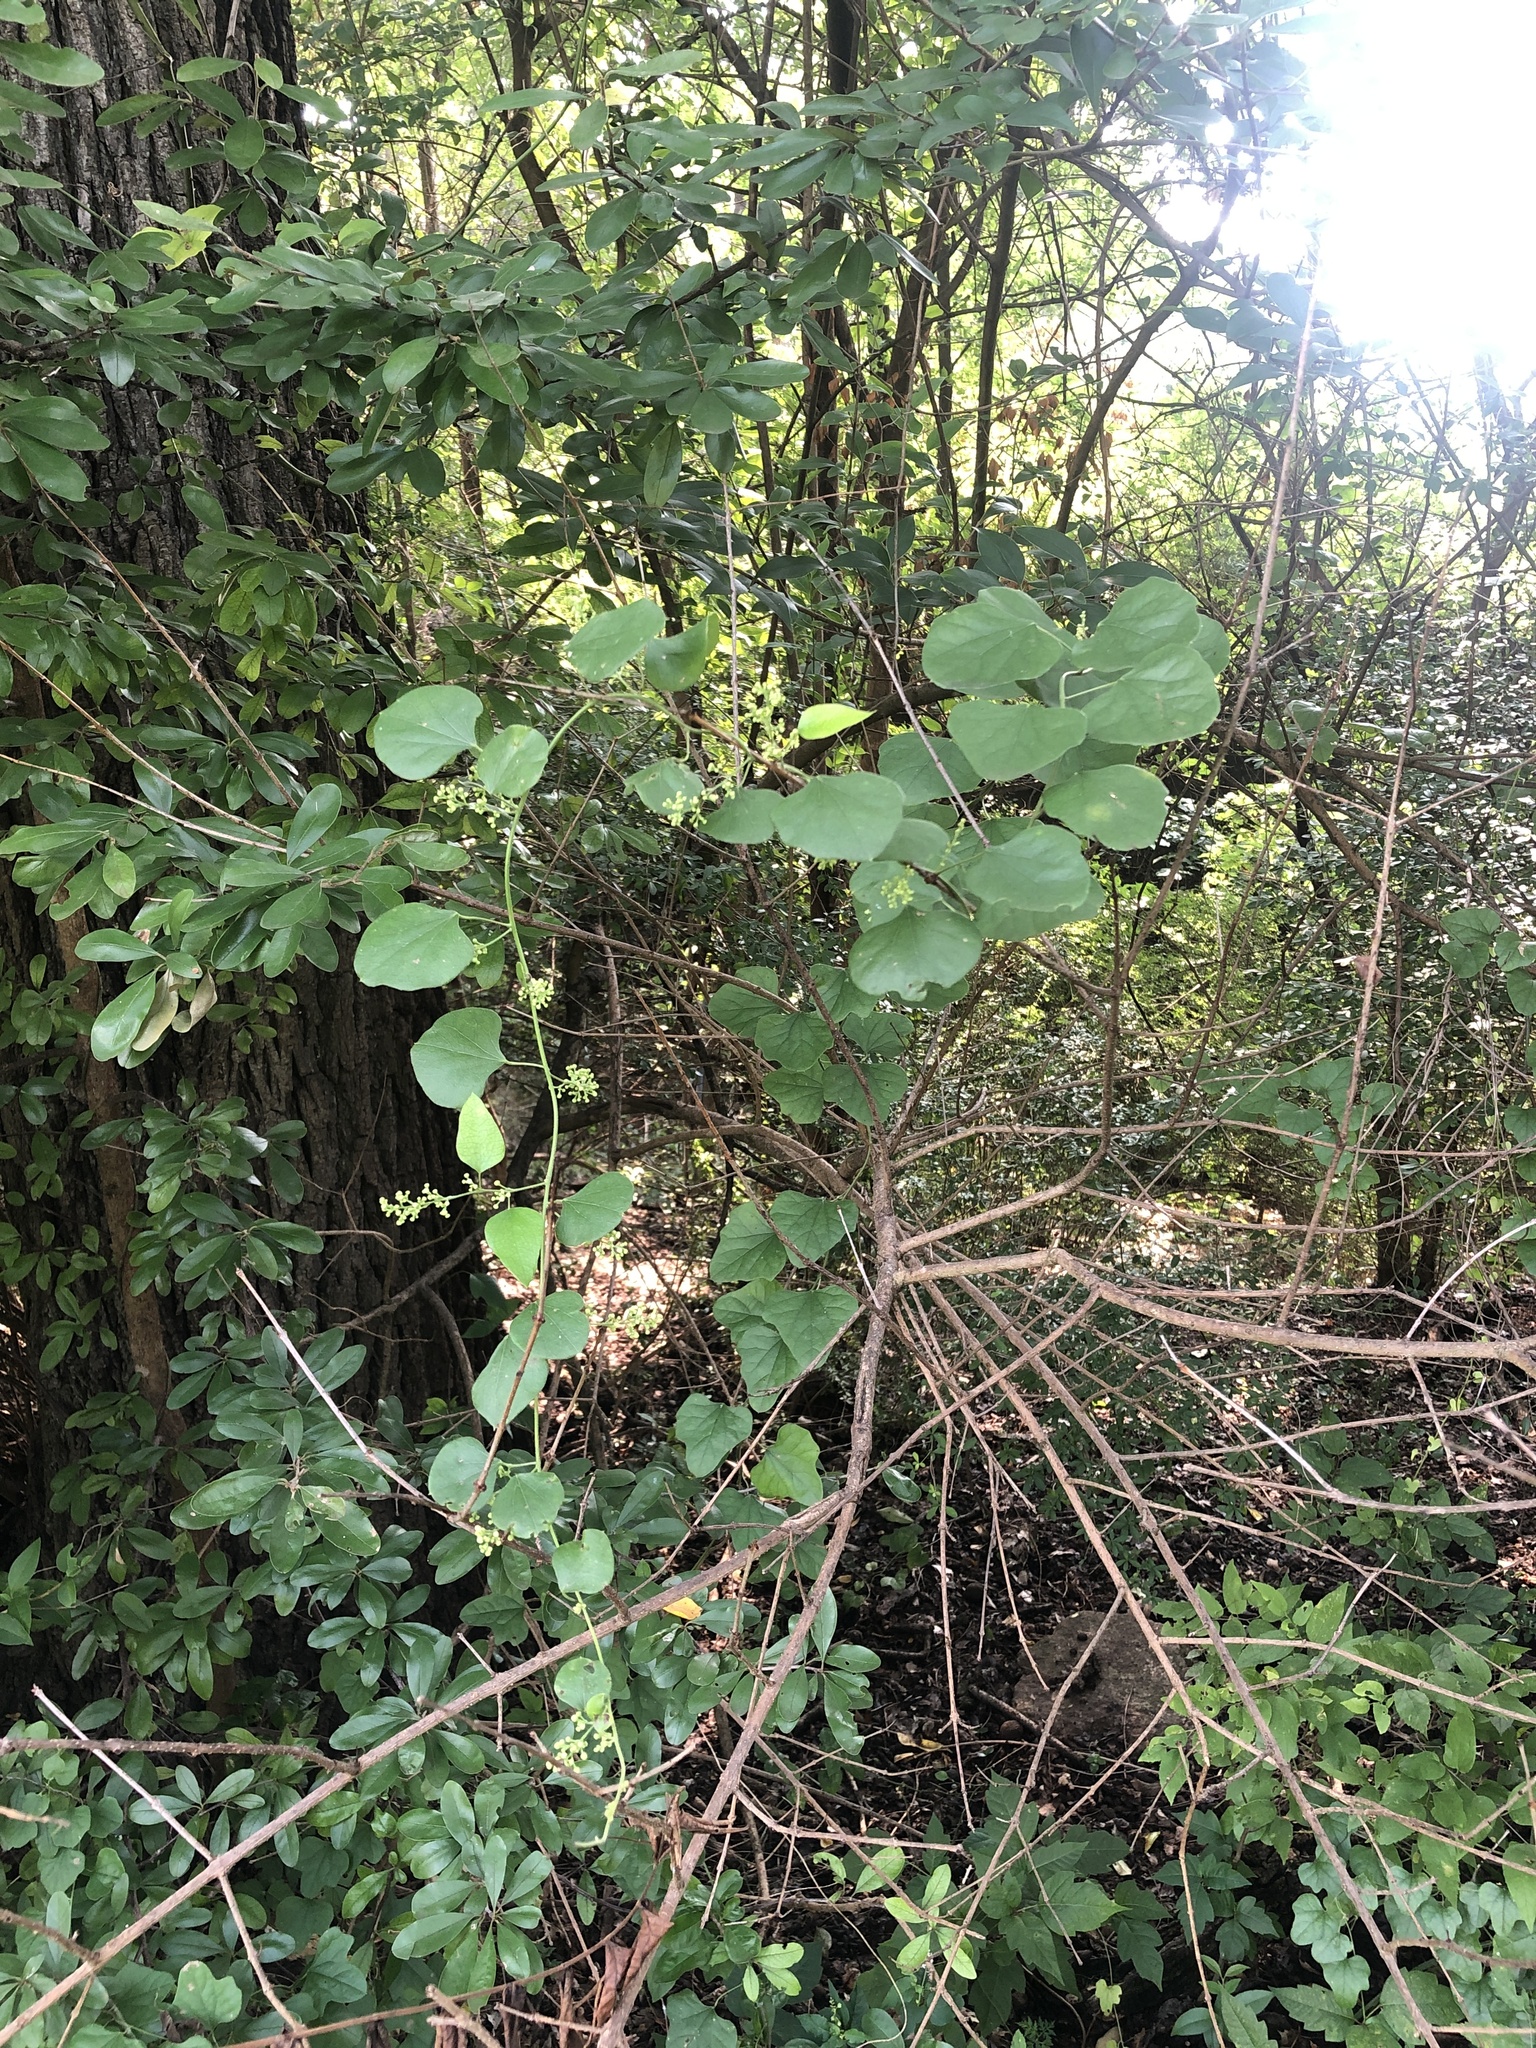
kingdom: Plantae
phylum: Tracheophyta
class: Magnoliopsida
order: Ranunculales
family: Menispermaceae
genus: Cocculus
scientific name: Cocculus carolinus
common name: Carolina moonseed
